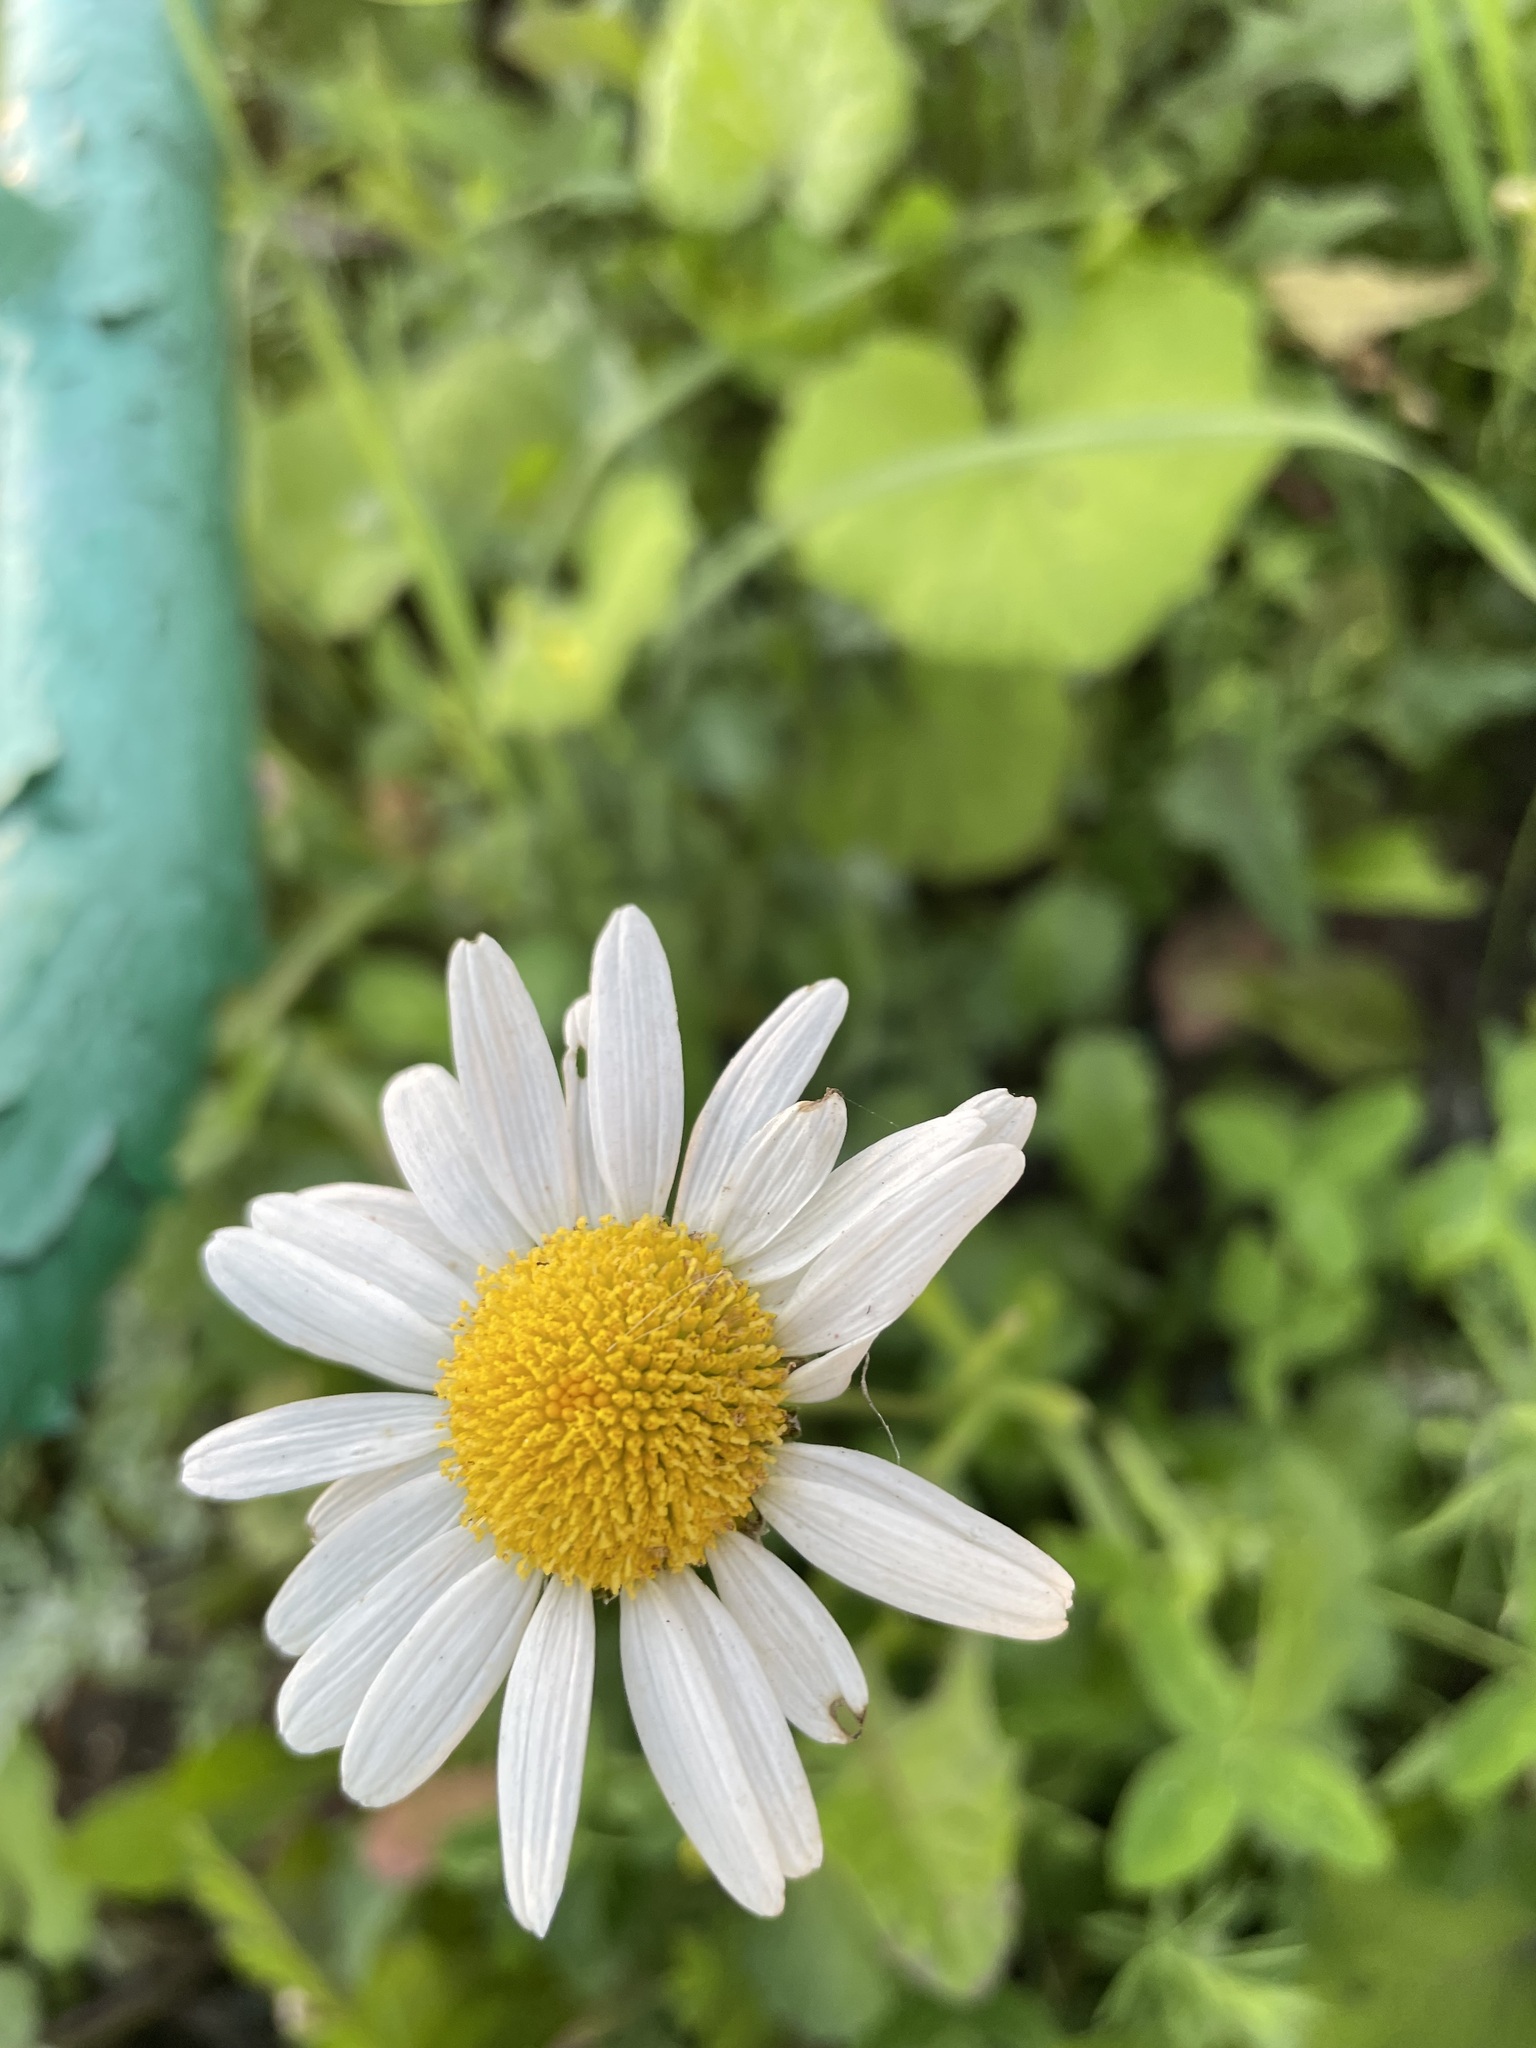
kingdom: Plantae
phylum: Tracheophyta
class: Magnoliopsida
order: Asterales
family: Asteraceae
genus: Leucanthemum
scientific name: Leucanthemum vulgare
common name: Oxeye daisy
